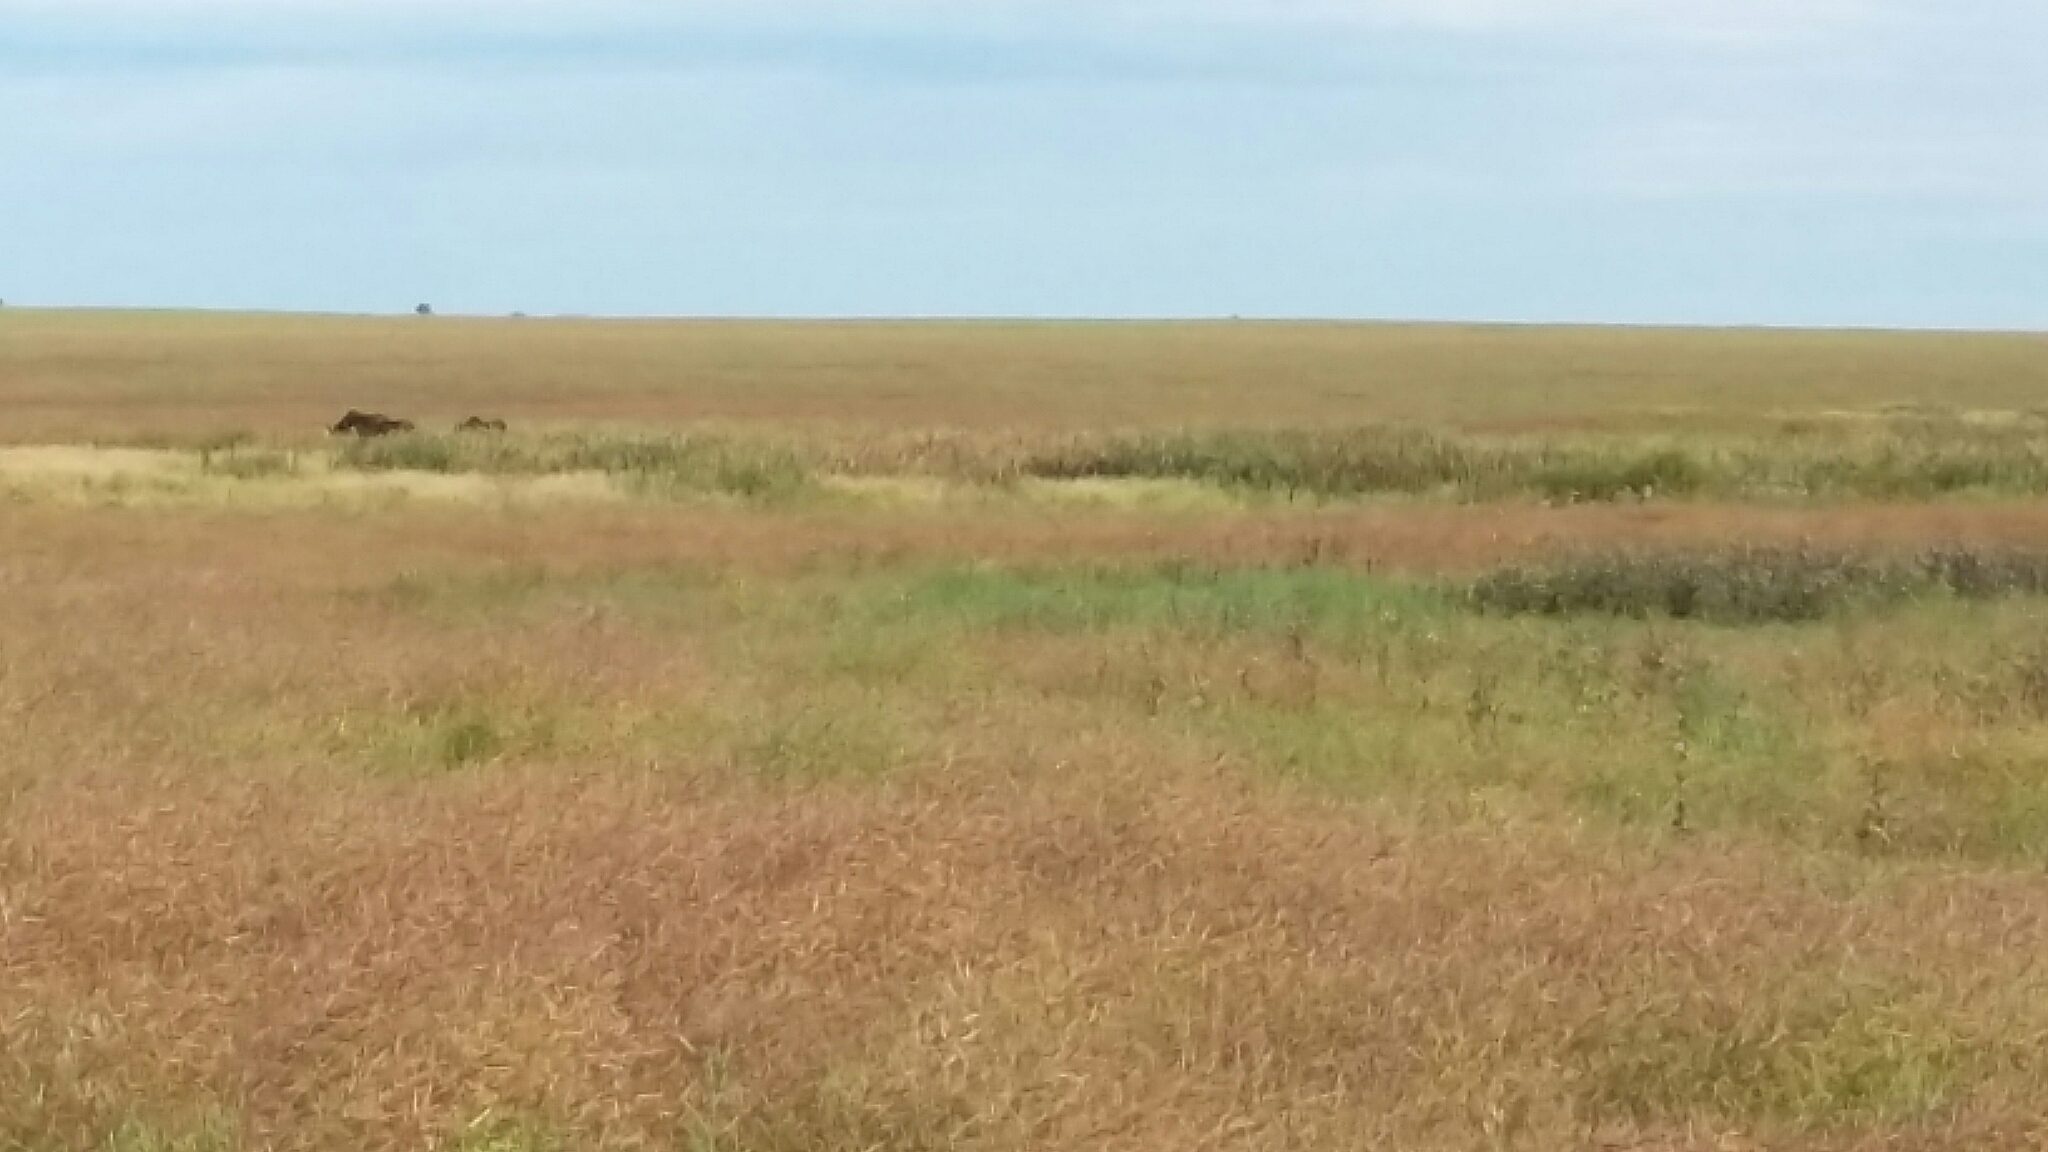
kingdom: Animalia
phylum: Chordata
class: Mammalia
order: Artiodactyla
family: Cervidae
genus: Alces
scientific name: Alces alces
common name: Moose
